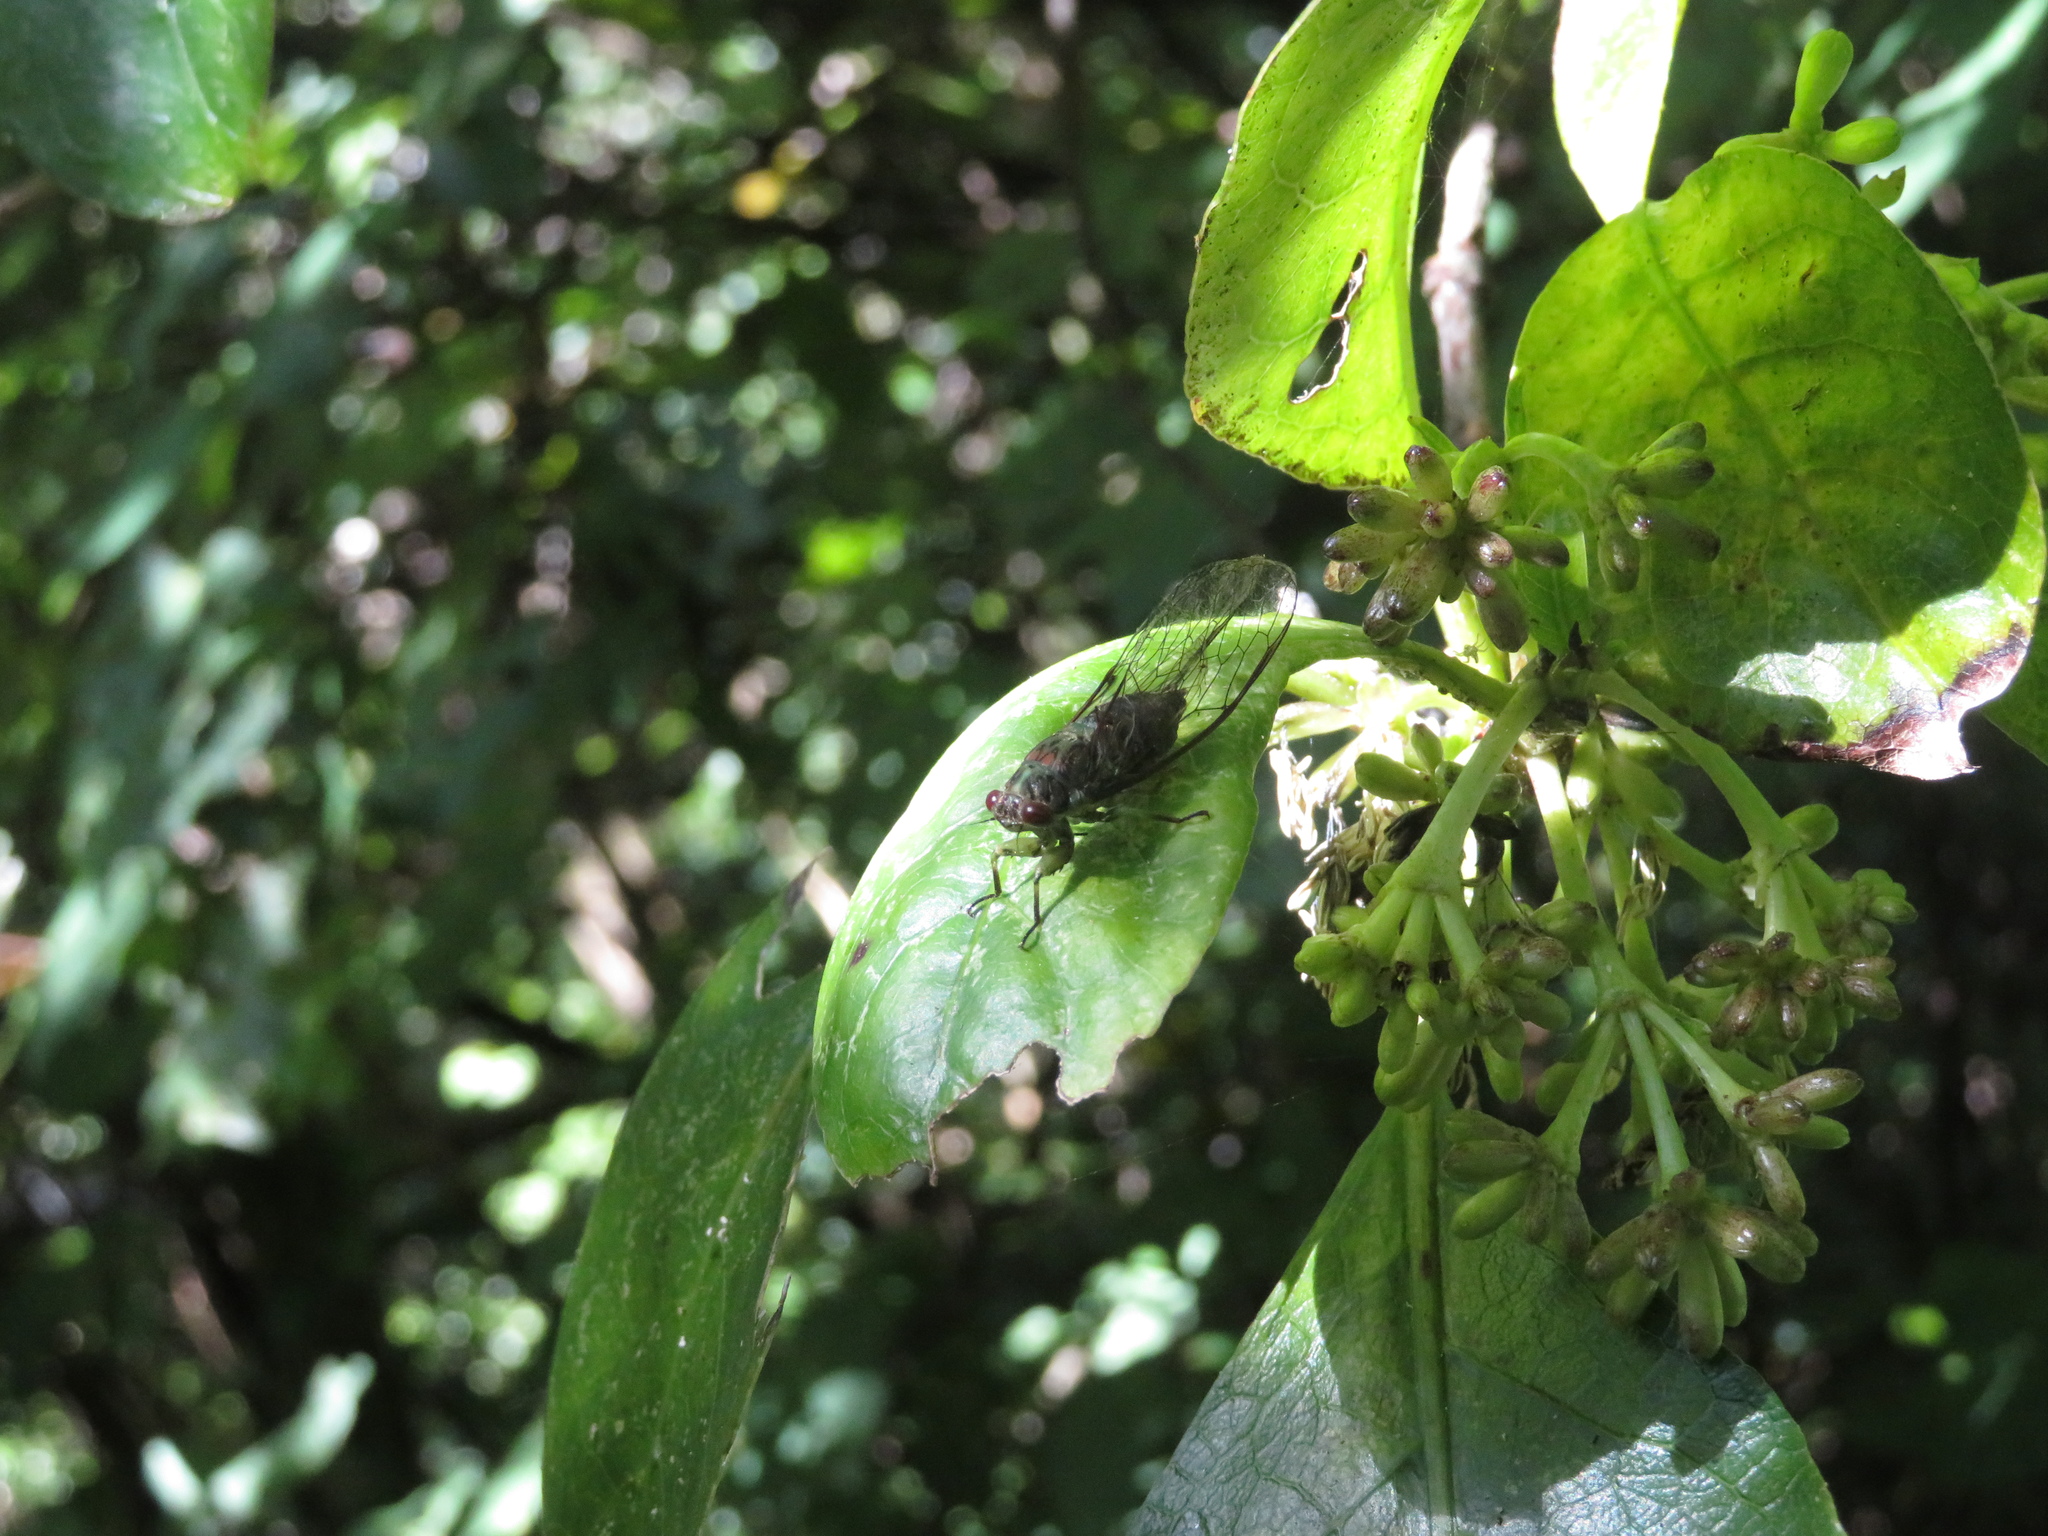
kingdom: Animalia
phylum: Arthropoda
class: Insecta
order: Hemiptera
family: Cicadidae
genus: Kikihia
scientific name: Kikihia scutellaris
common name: Lesser bronze cicada
